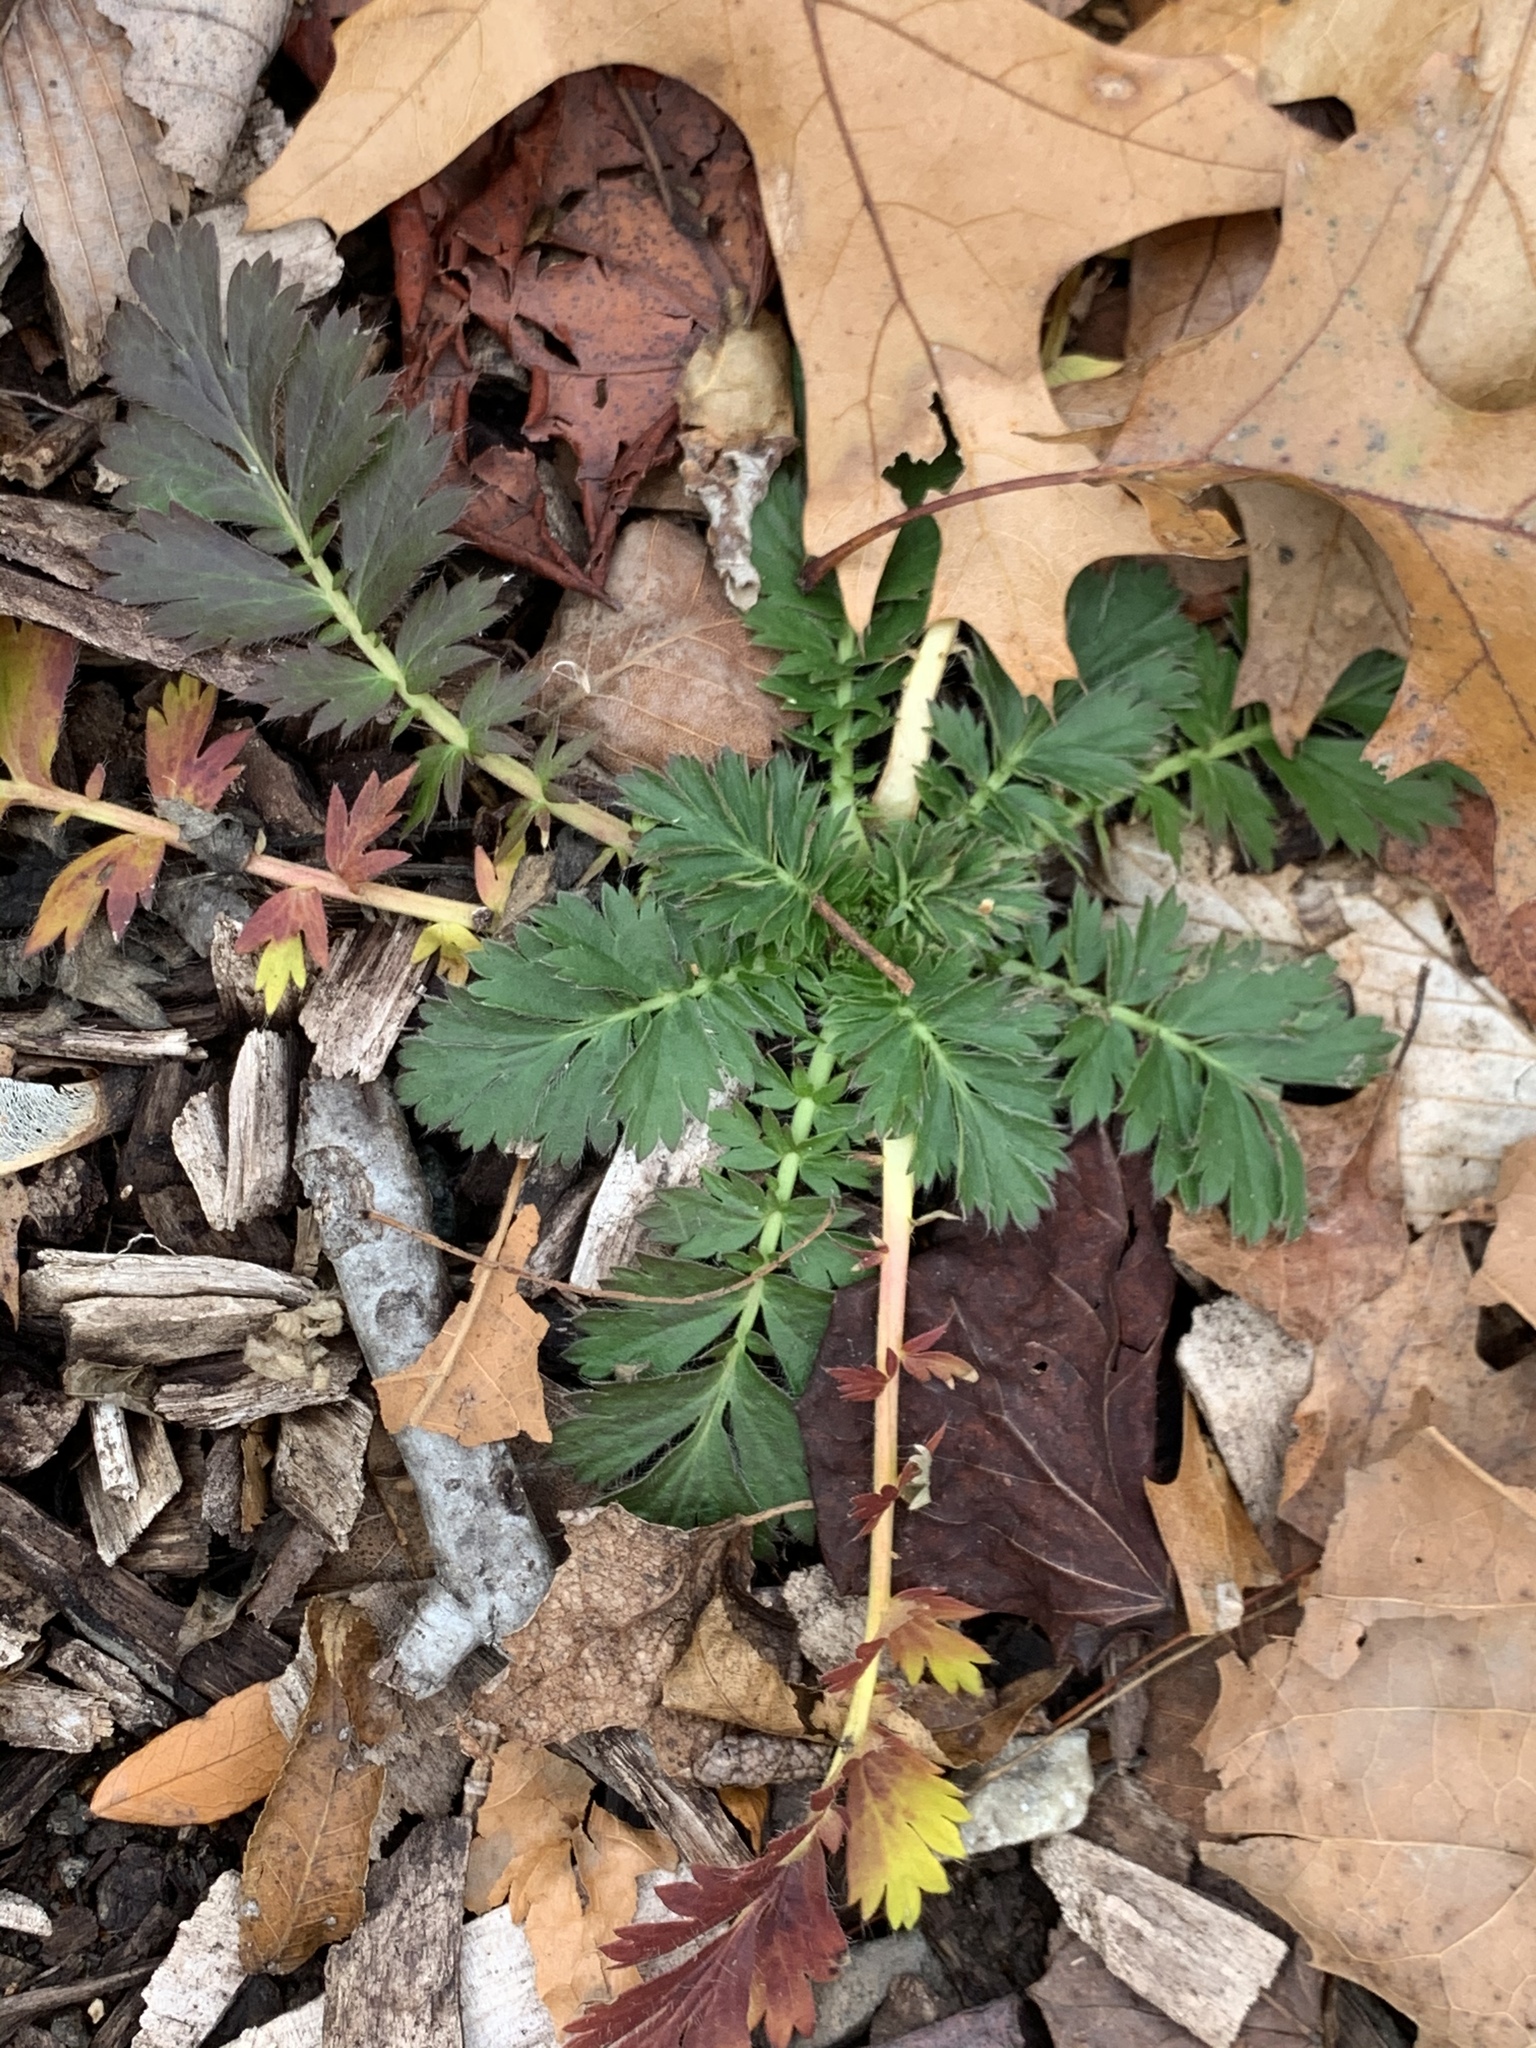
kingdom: Plantae
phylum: Tracheophyta
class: Magnoliopsida
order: Geraniales
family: Geraniaceae
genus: Erodium
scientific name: Erodium cicutarium
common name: Common stork's-bill
